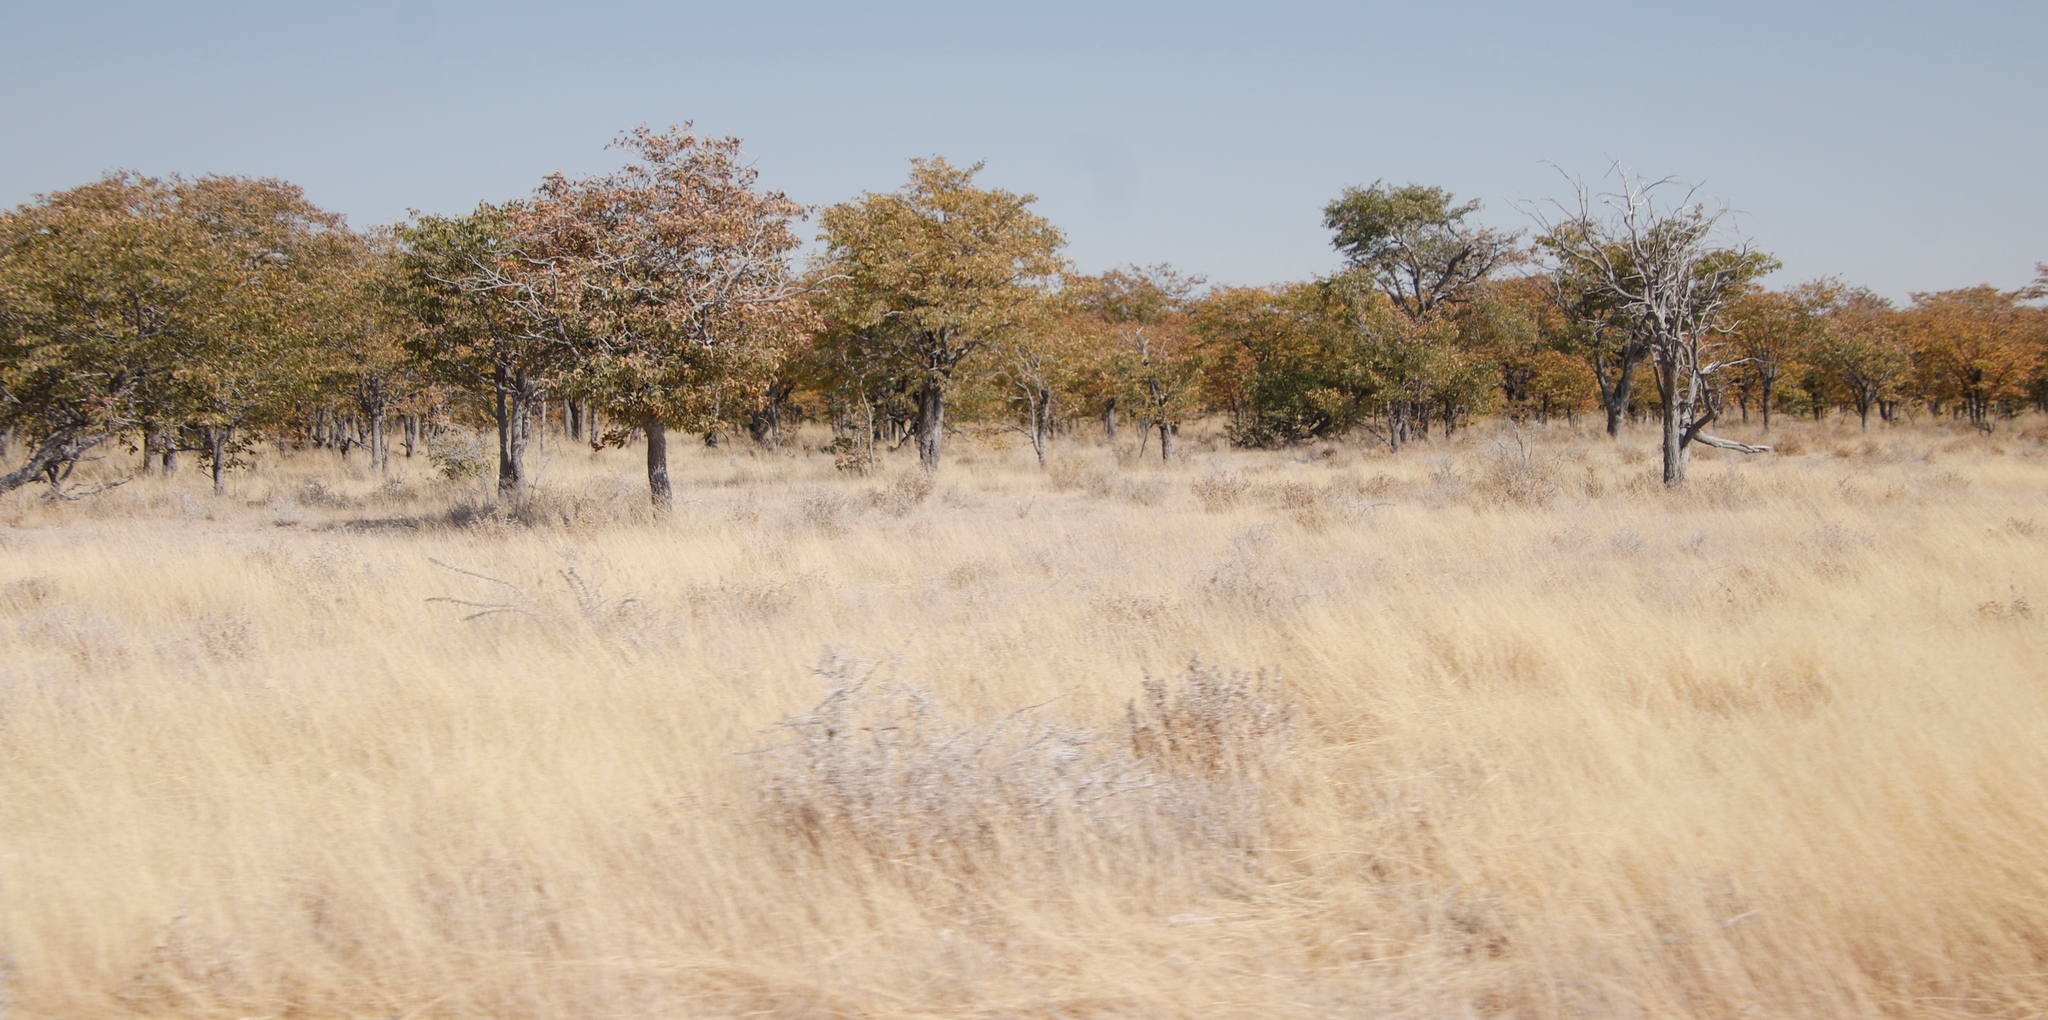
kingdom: Plantae
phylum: Tracheophyta
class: Magnoliopsida
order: Fabales
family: Fabaceae
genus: Colophospermum
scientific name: Colophospermum mopane
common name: Mopane
